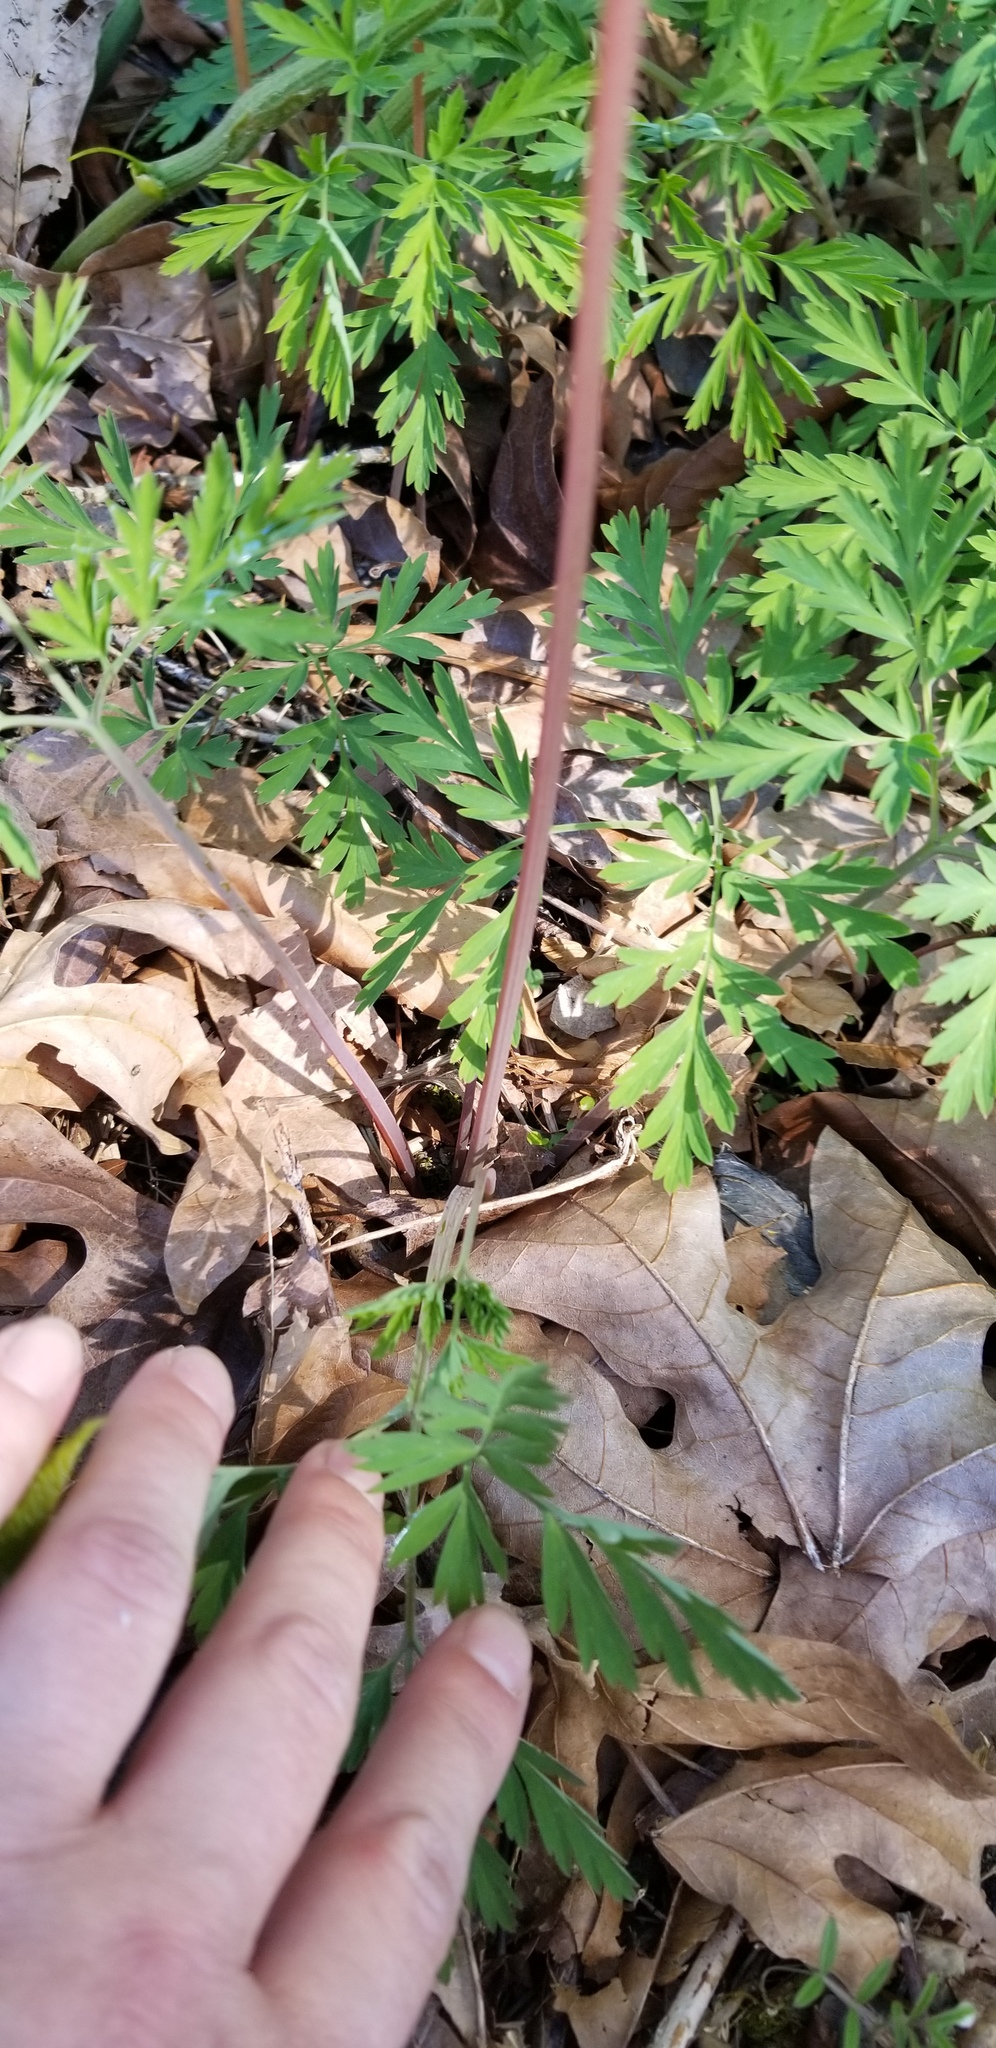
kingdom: Plantae
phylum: Tracheophyta
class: Magnoliopsida
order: Ranunculales
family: Papaveraceae
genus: Dicentra
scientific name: Dicentra formosa
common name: Bleeding-heart
